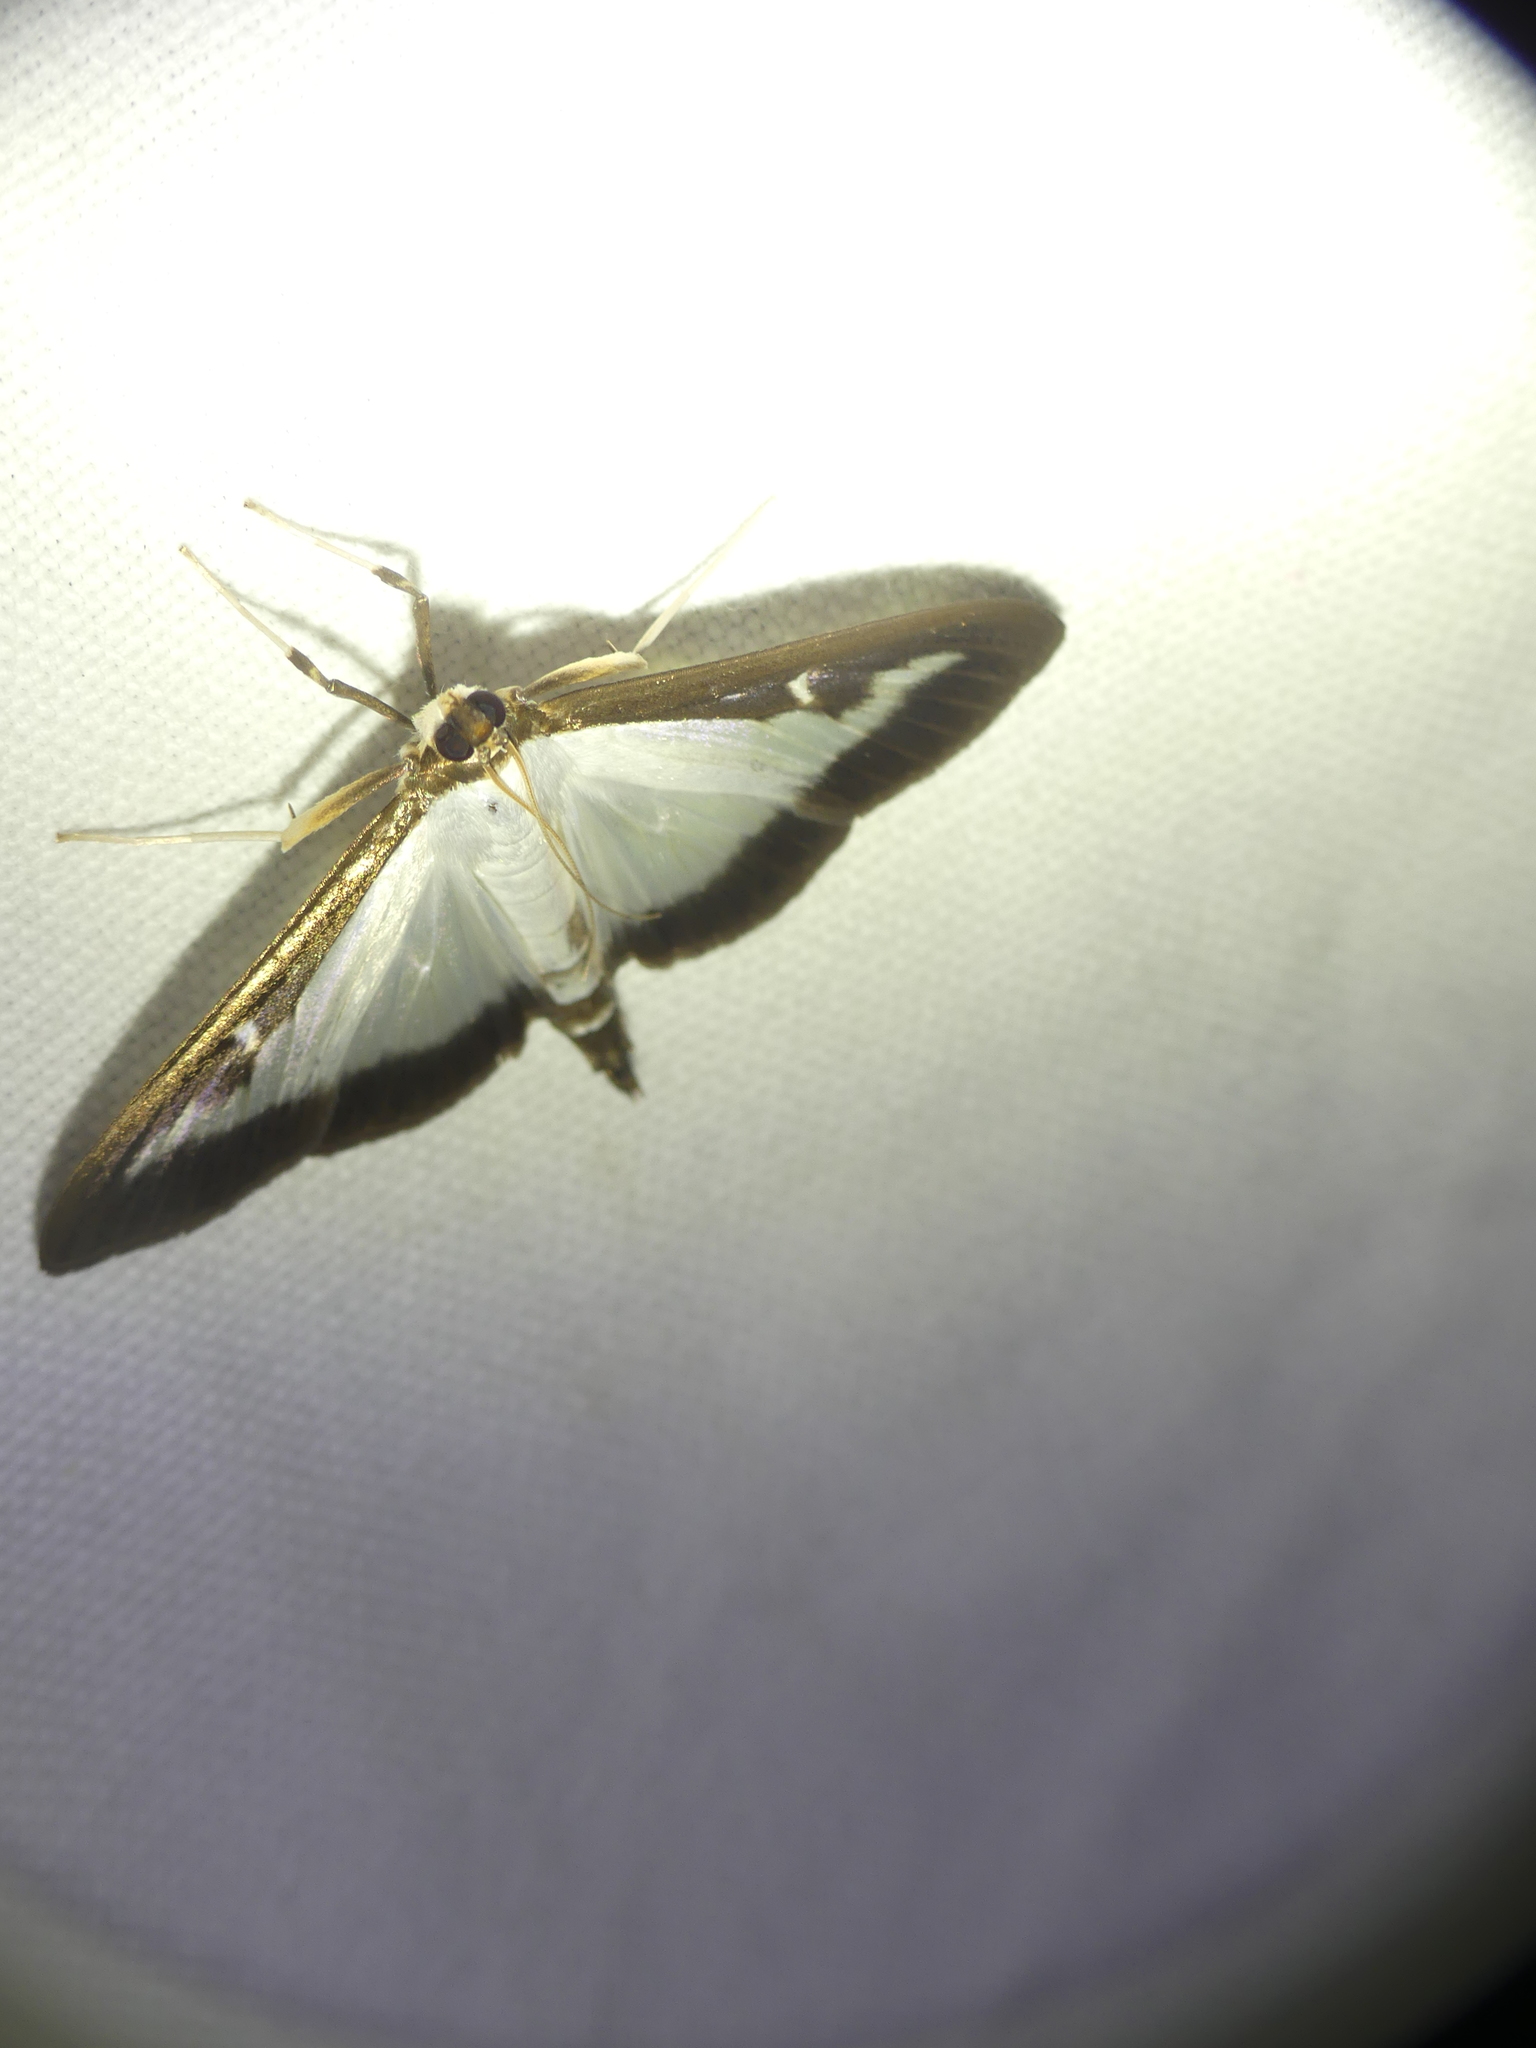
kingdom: Animalia
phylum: Arthropoda
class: Insecta
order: Lepidoptera
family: Crambidae
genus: Cydalima
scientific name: Cydalima perspectalis
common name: Box tree moth
